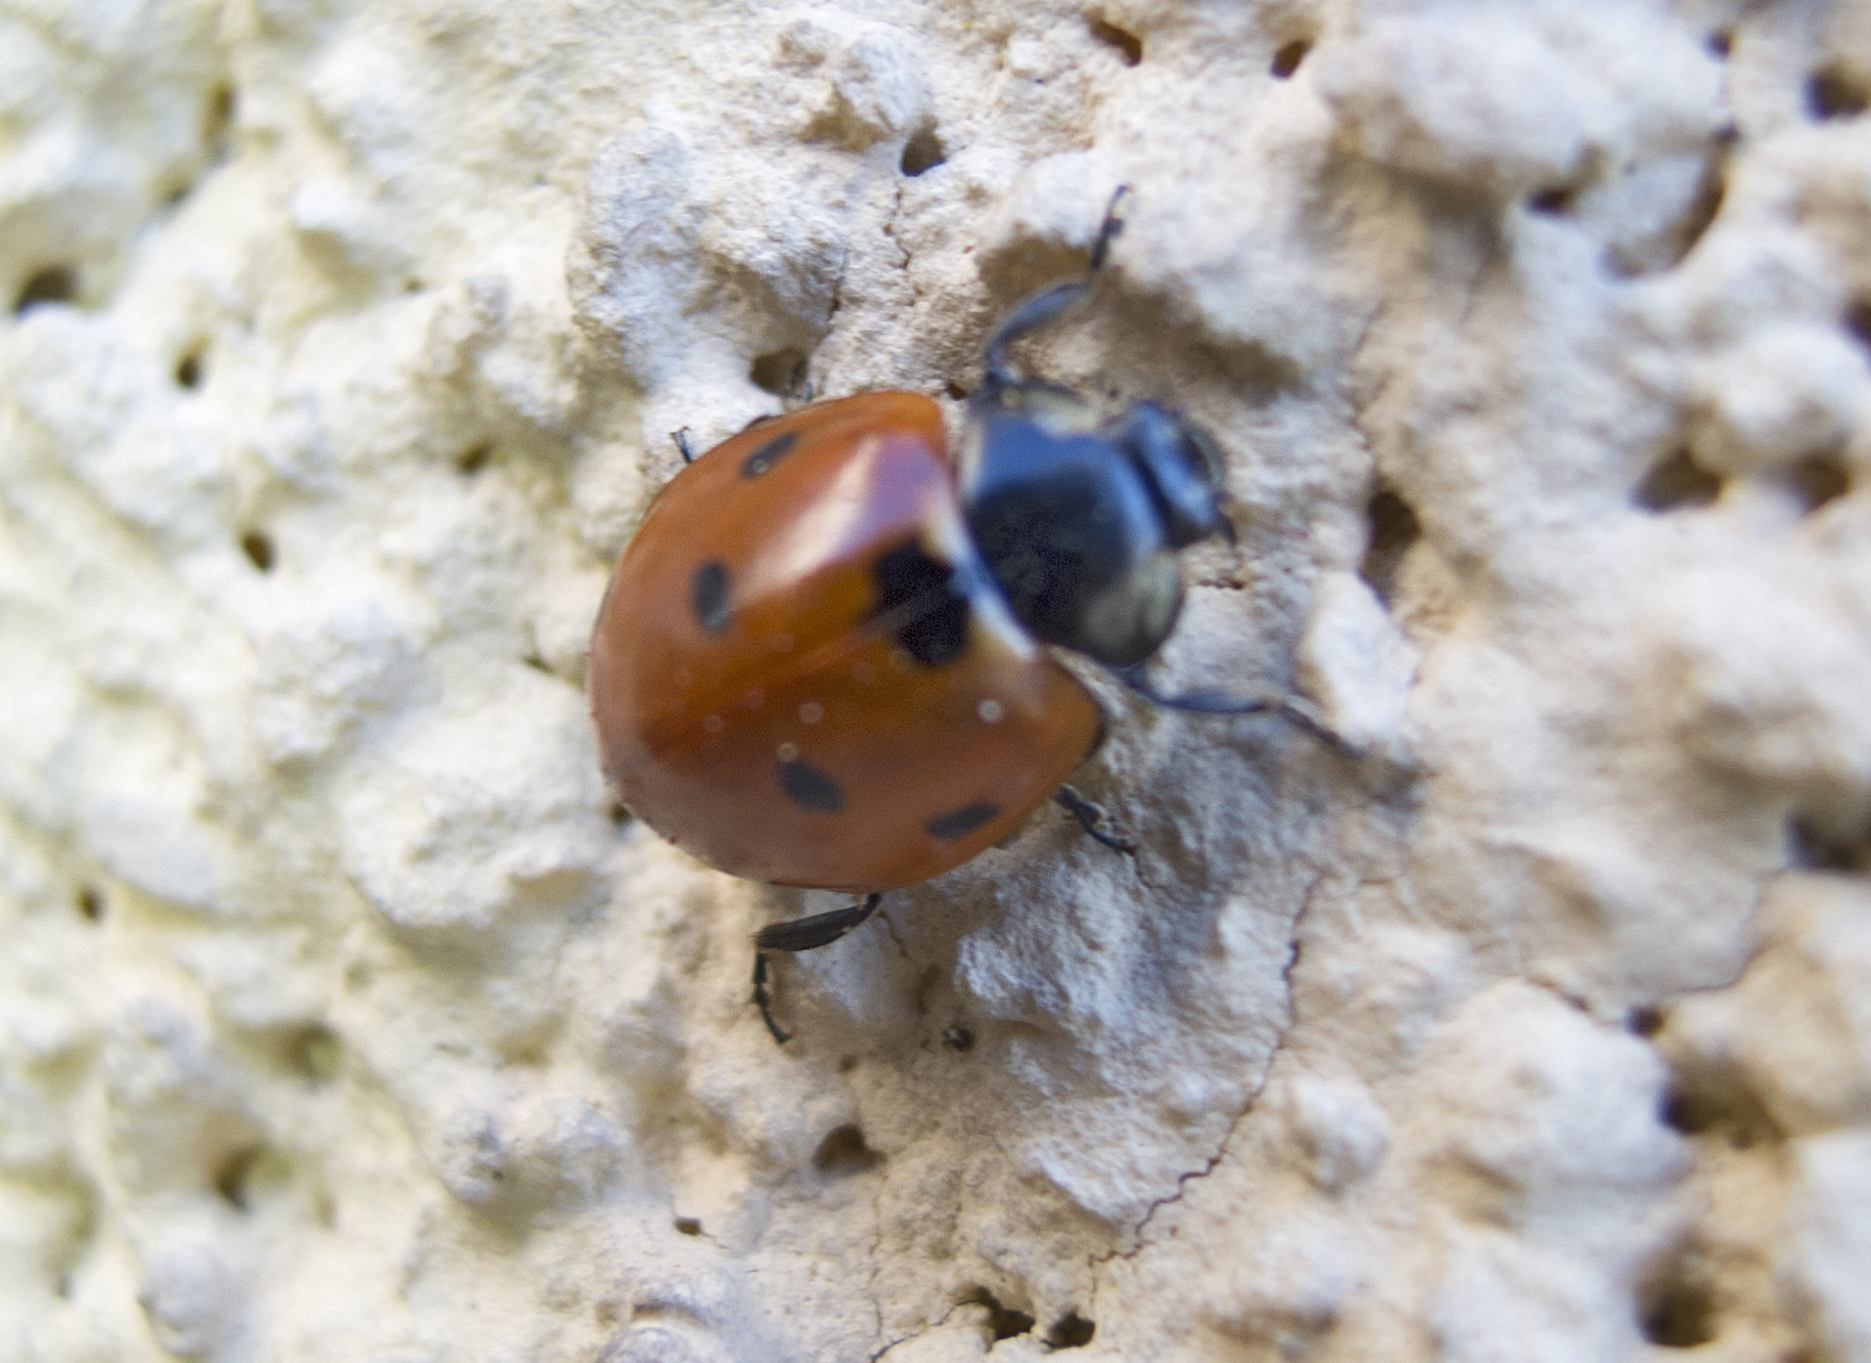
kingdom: Animalia
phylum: Arthropoda
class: Insecta
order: Coleoptera
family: Coccinellidae
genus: Coccinella
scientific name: Coccinella septempunctata
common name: Sevenspotted lady beetle
